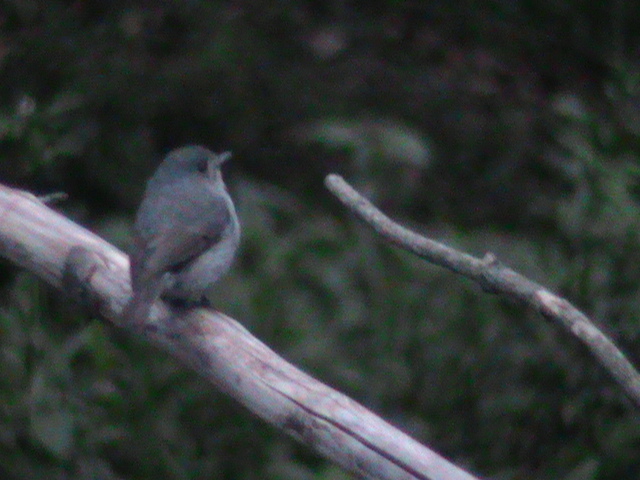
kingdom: Animalia
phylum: Chordata
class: Aves
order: Passeriformes
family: Muscicapidae
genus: Eumyias
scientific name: Eumyias albicaudatus
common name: Nilgiri flycatcher
